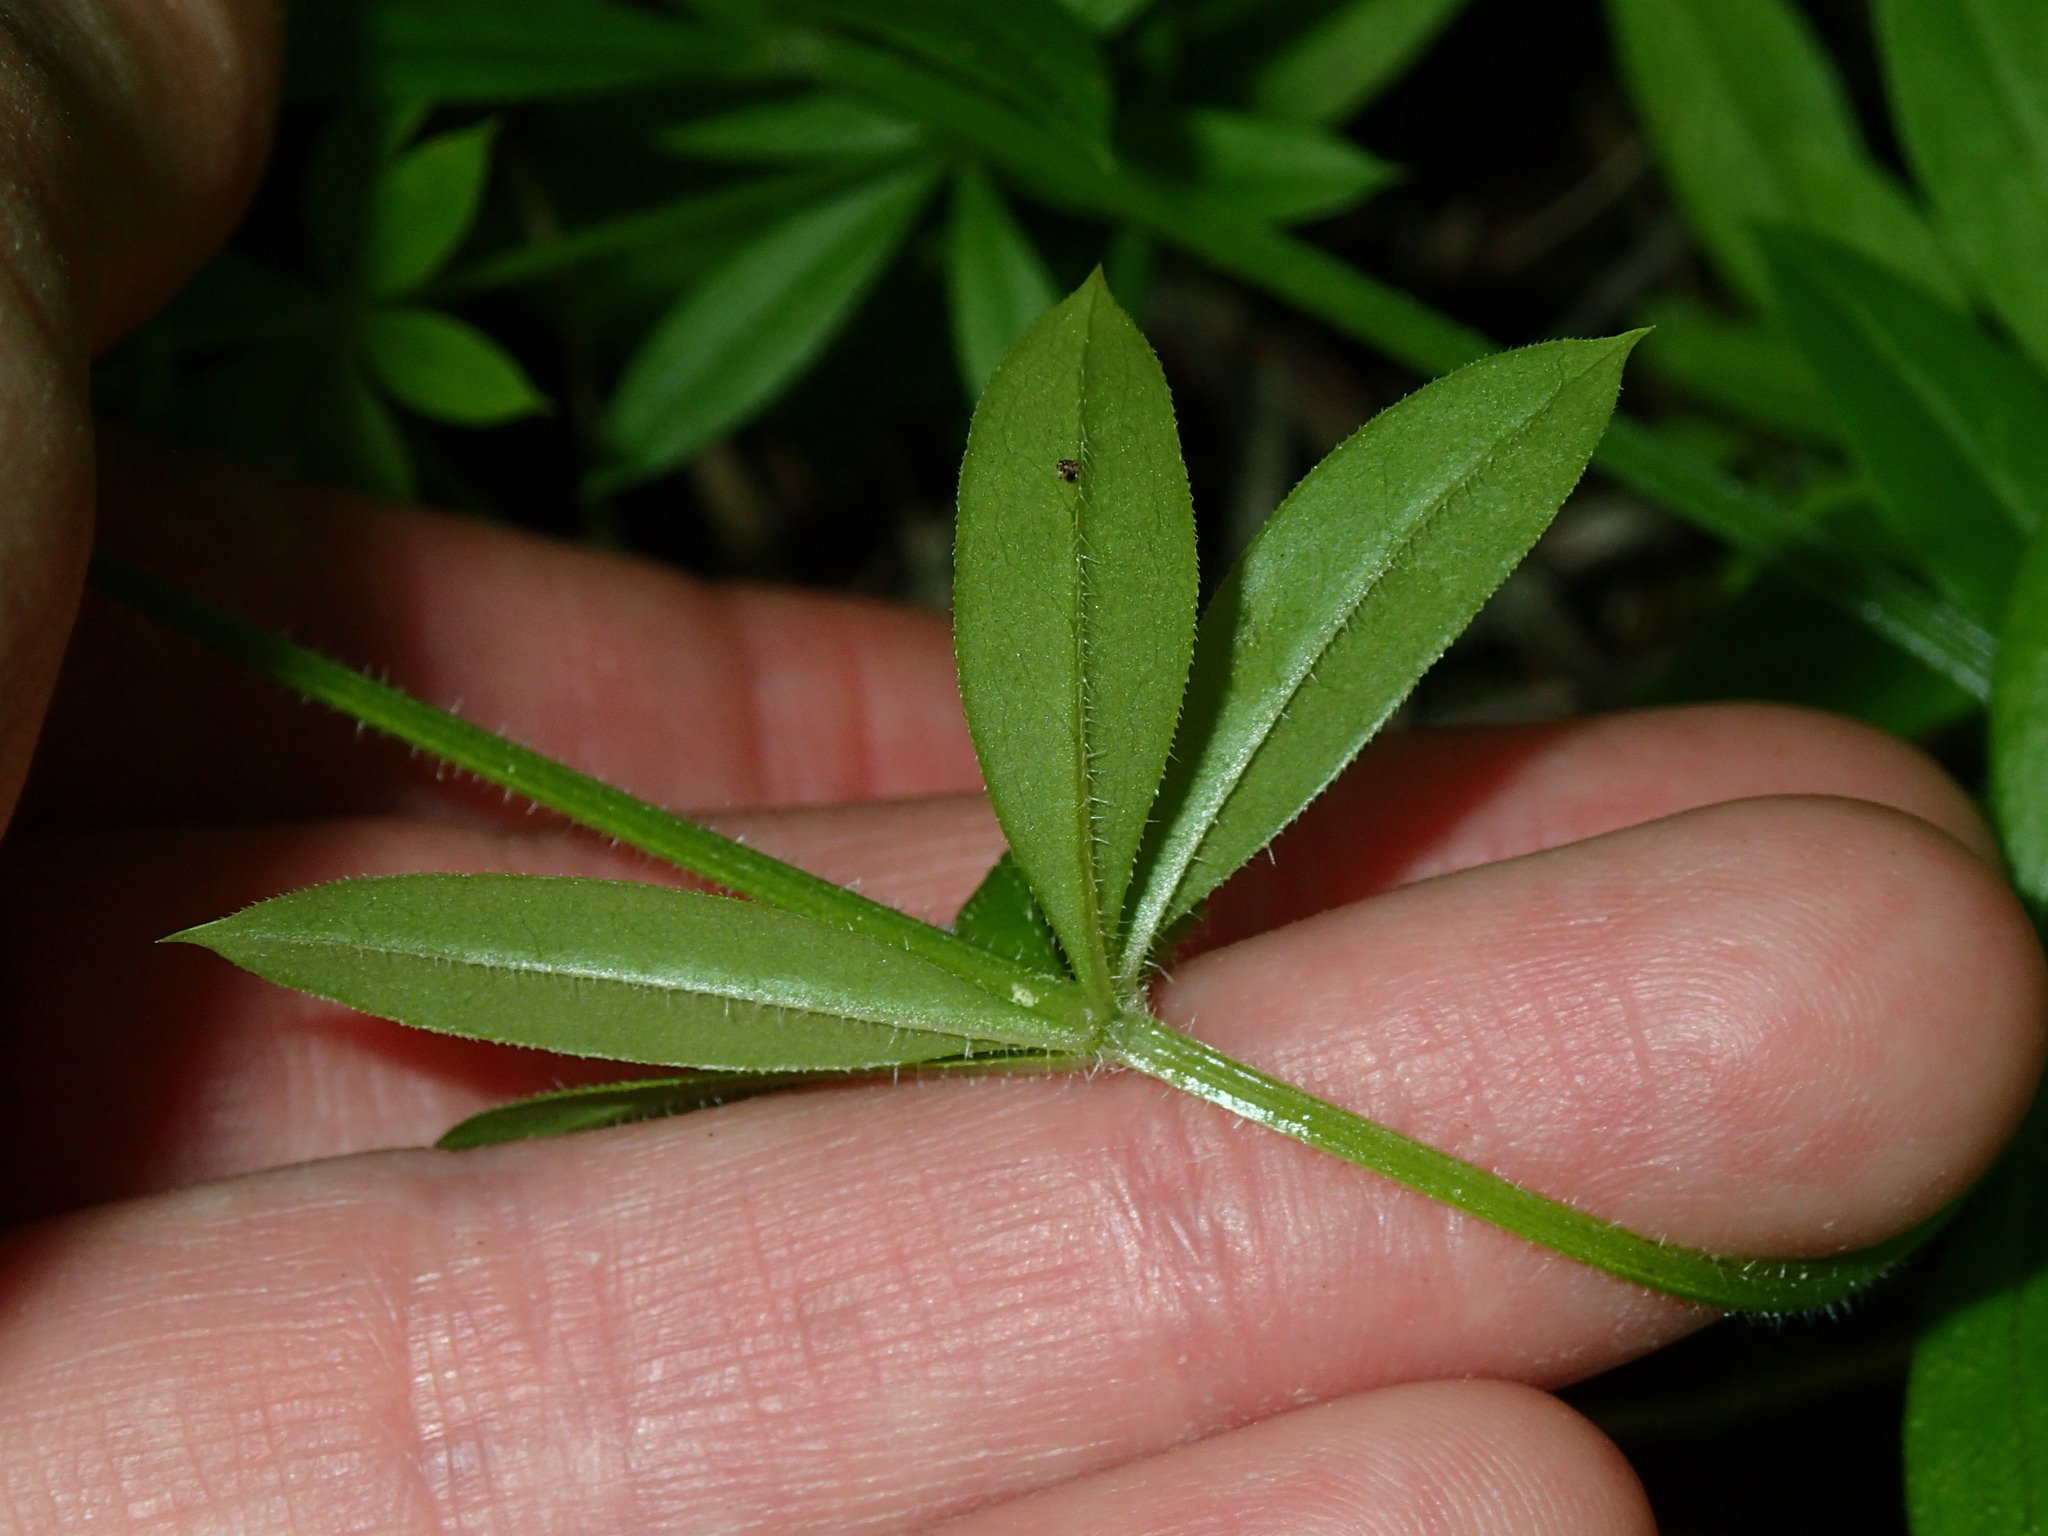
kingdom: Plantae
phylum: Tracheophyta
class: Magnoliopsida
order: Gentianales
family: Rubiaceae
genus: Galium
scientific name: Galium triflorum
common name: Fragrant bedstraw
